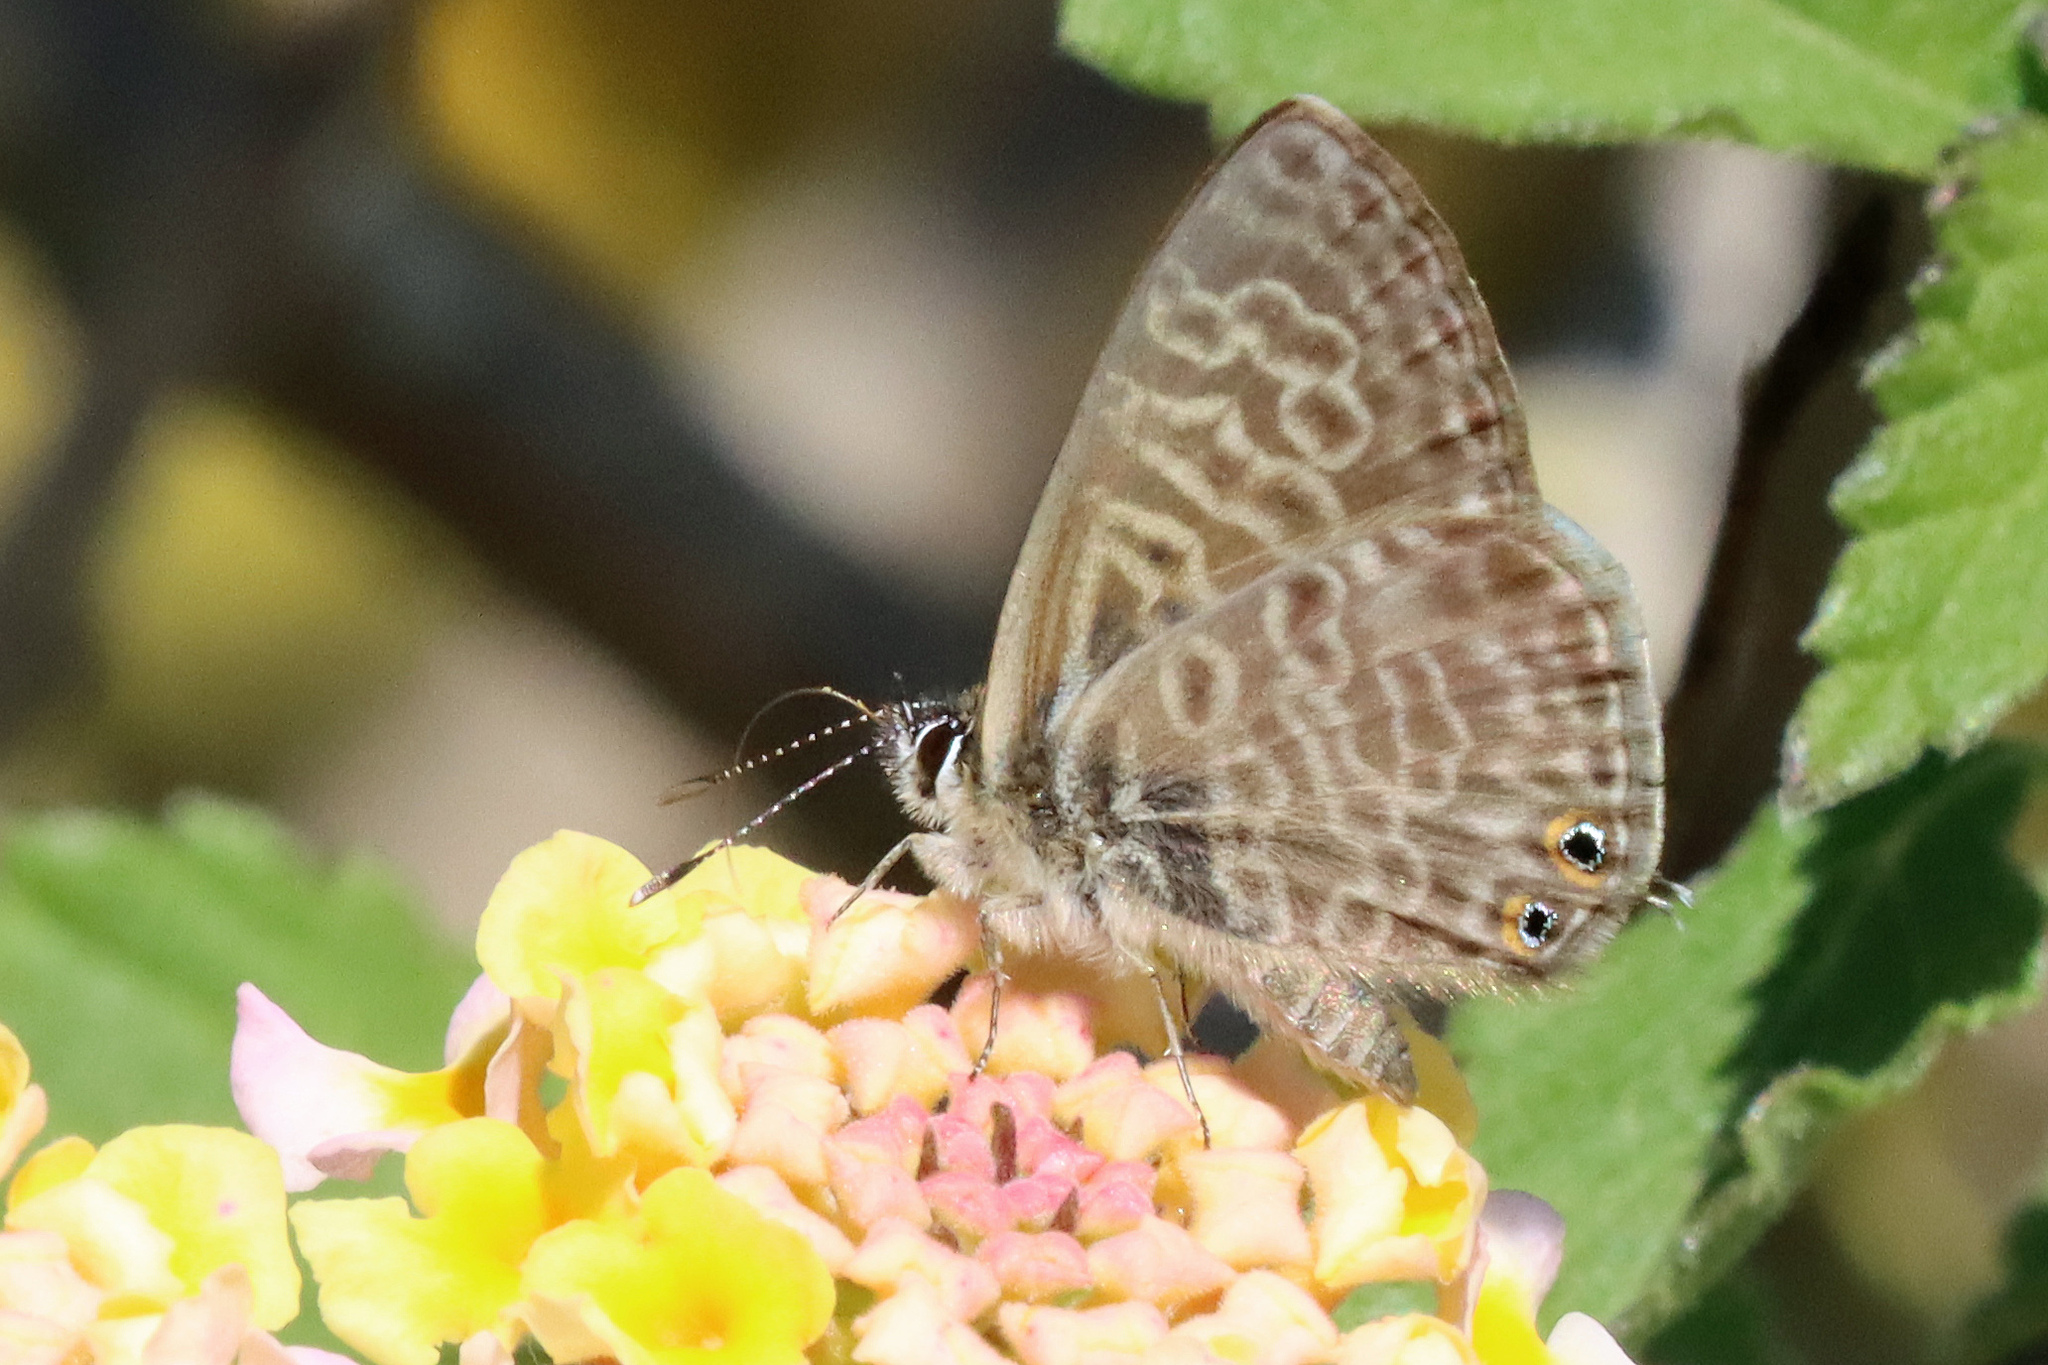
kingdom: Animalia
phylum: Arthropoda
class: Insecta
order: Lepidoptera
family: Lycaenidae
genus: Leptotes
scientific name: Leptotes pirithous
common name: Lang's short-tailed blue
